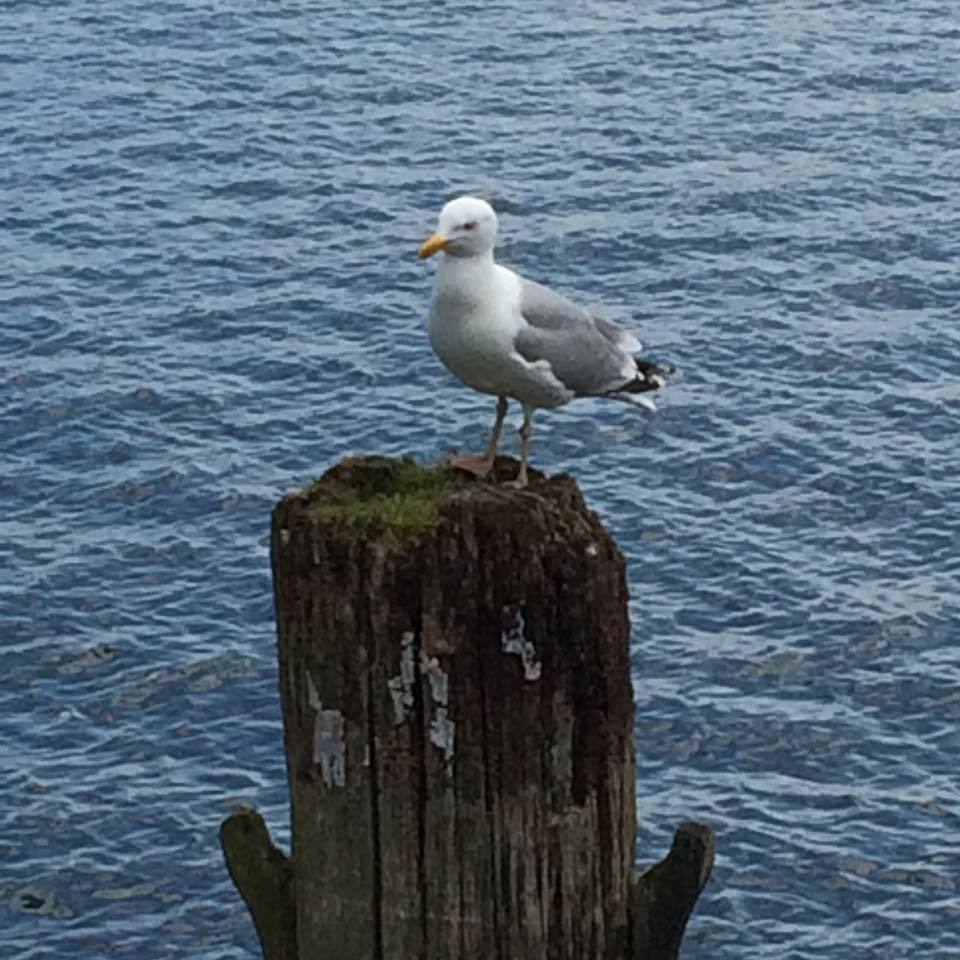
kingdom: Animalia
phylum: Chordata
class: Aves
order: Charadriiformes
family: Laridae
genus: Larus
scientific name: Larus argentatus
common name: Herring gull
